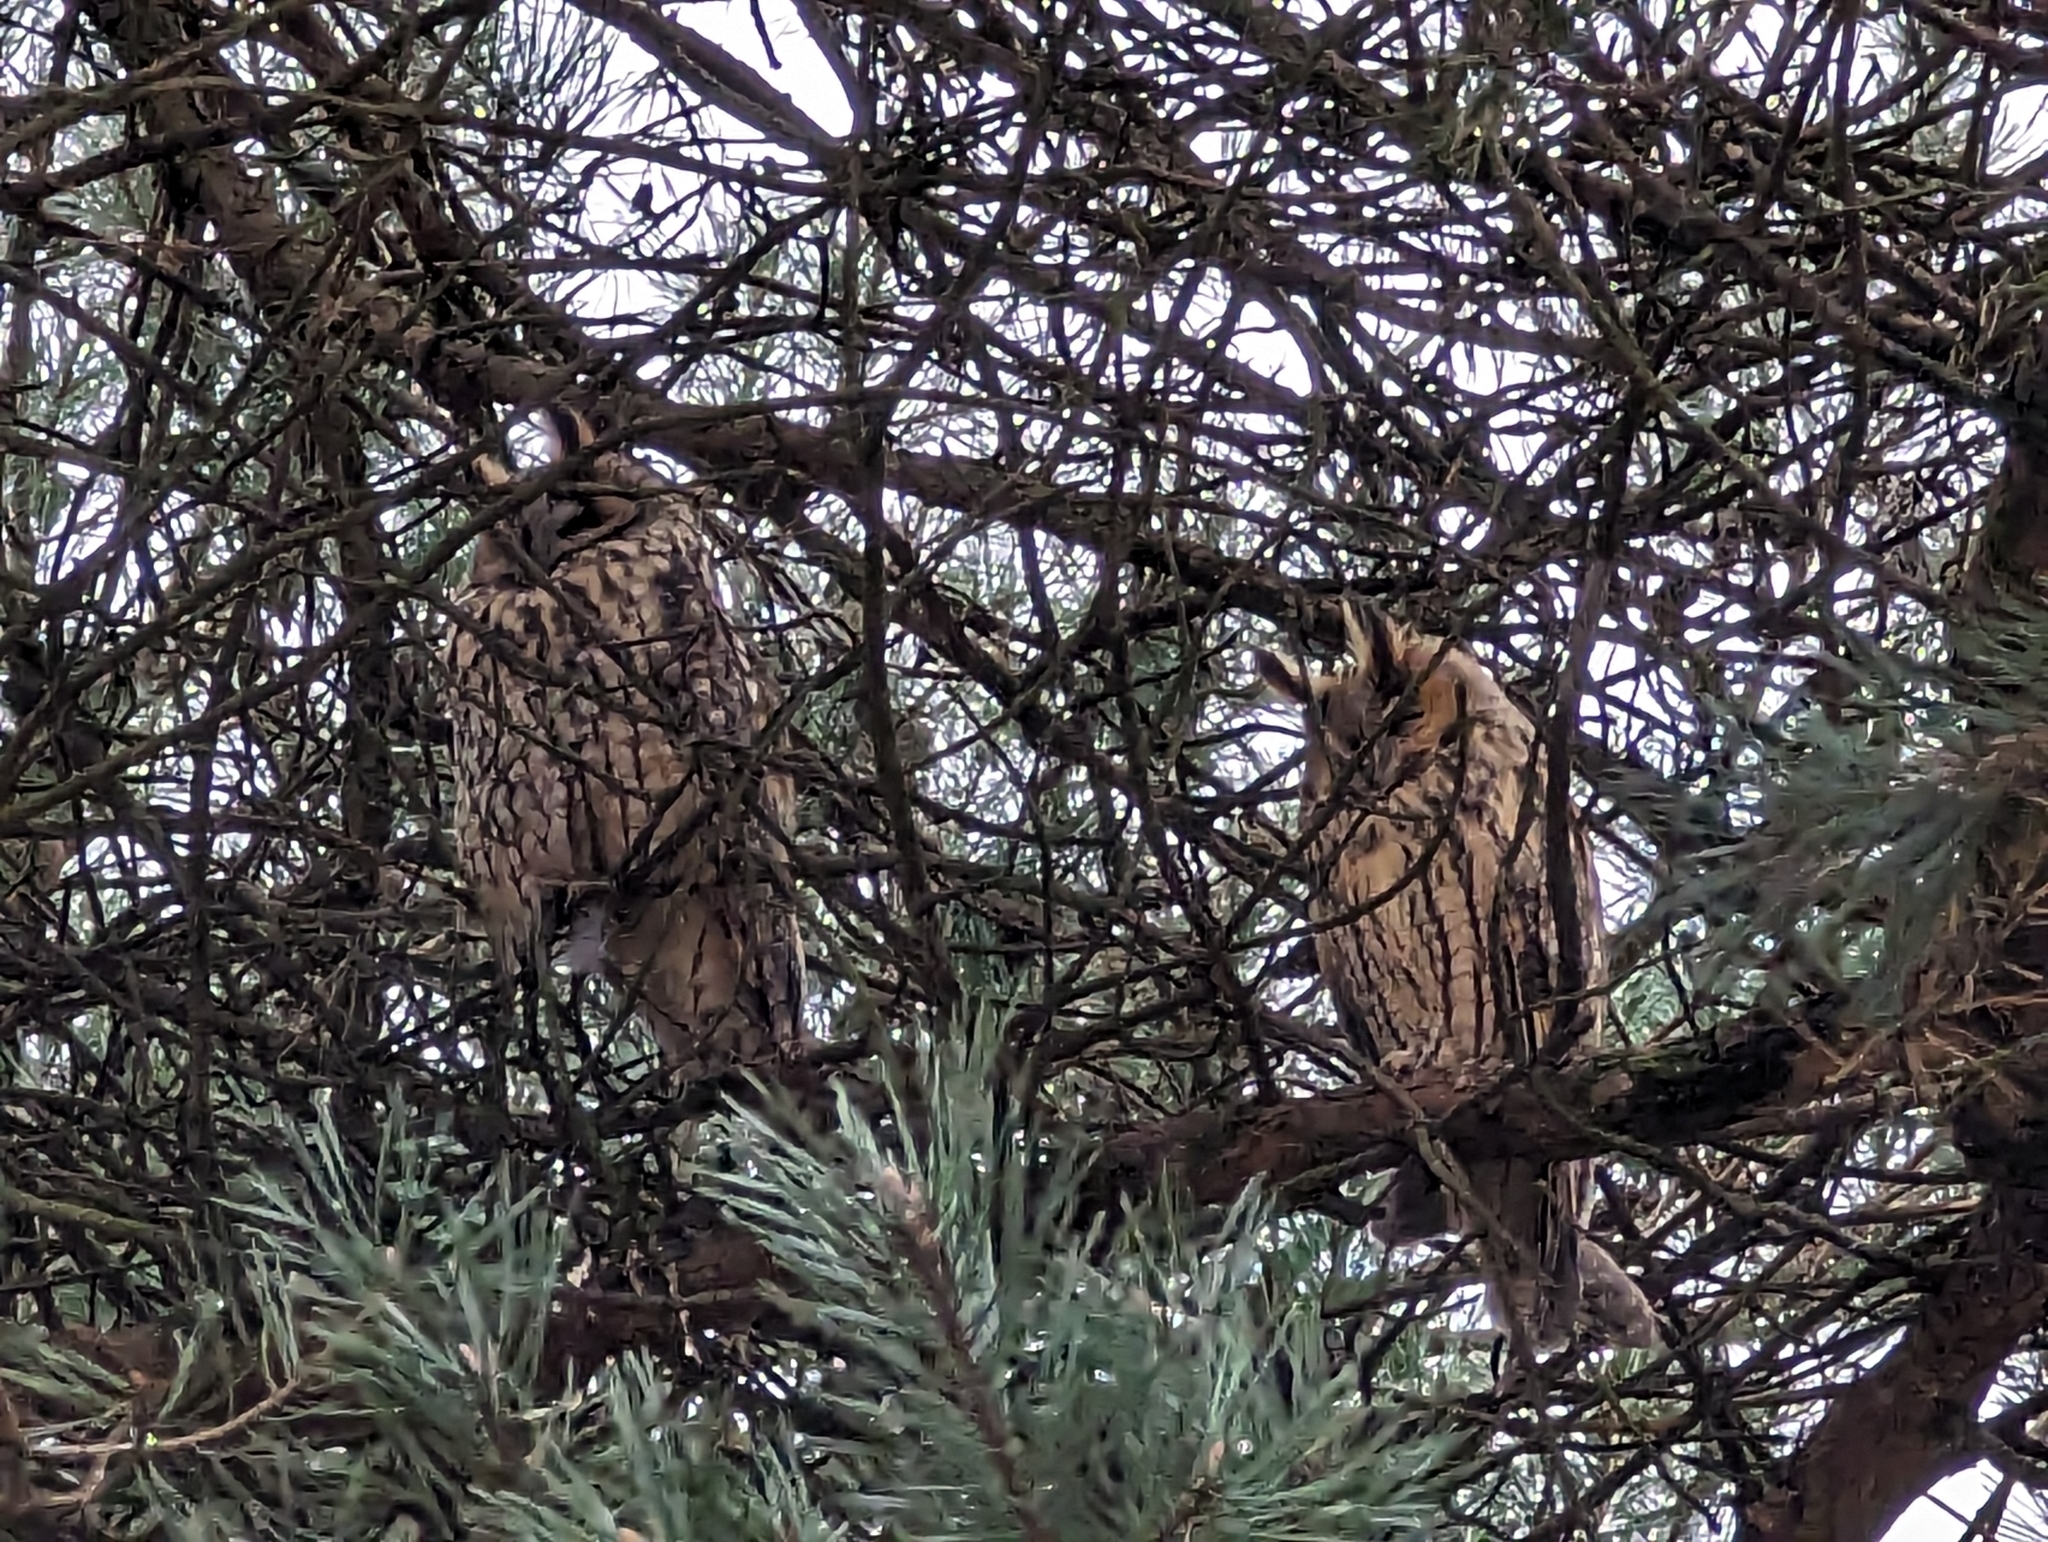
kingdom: Animalia
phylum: Chordata
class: Aves
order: Strigiformes
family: Strigidae
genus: Asio
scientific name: Asio otus
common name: Long-eared owl
